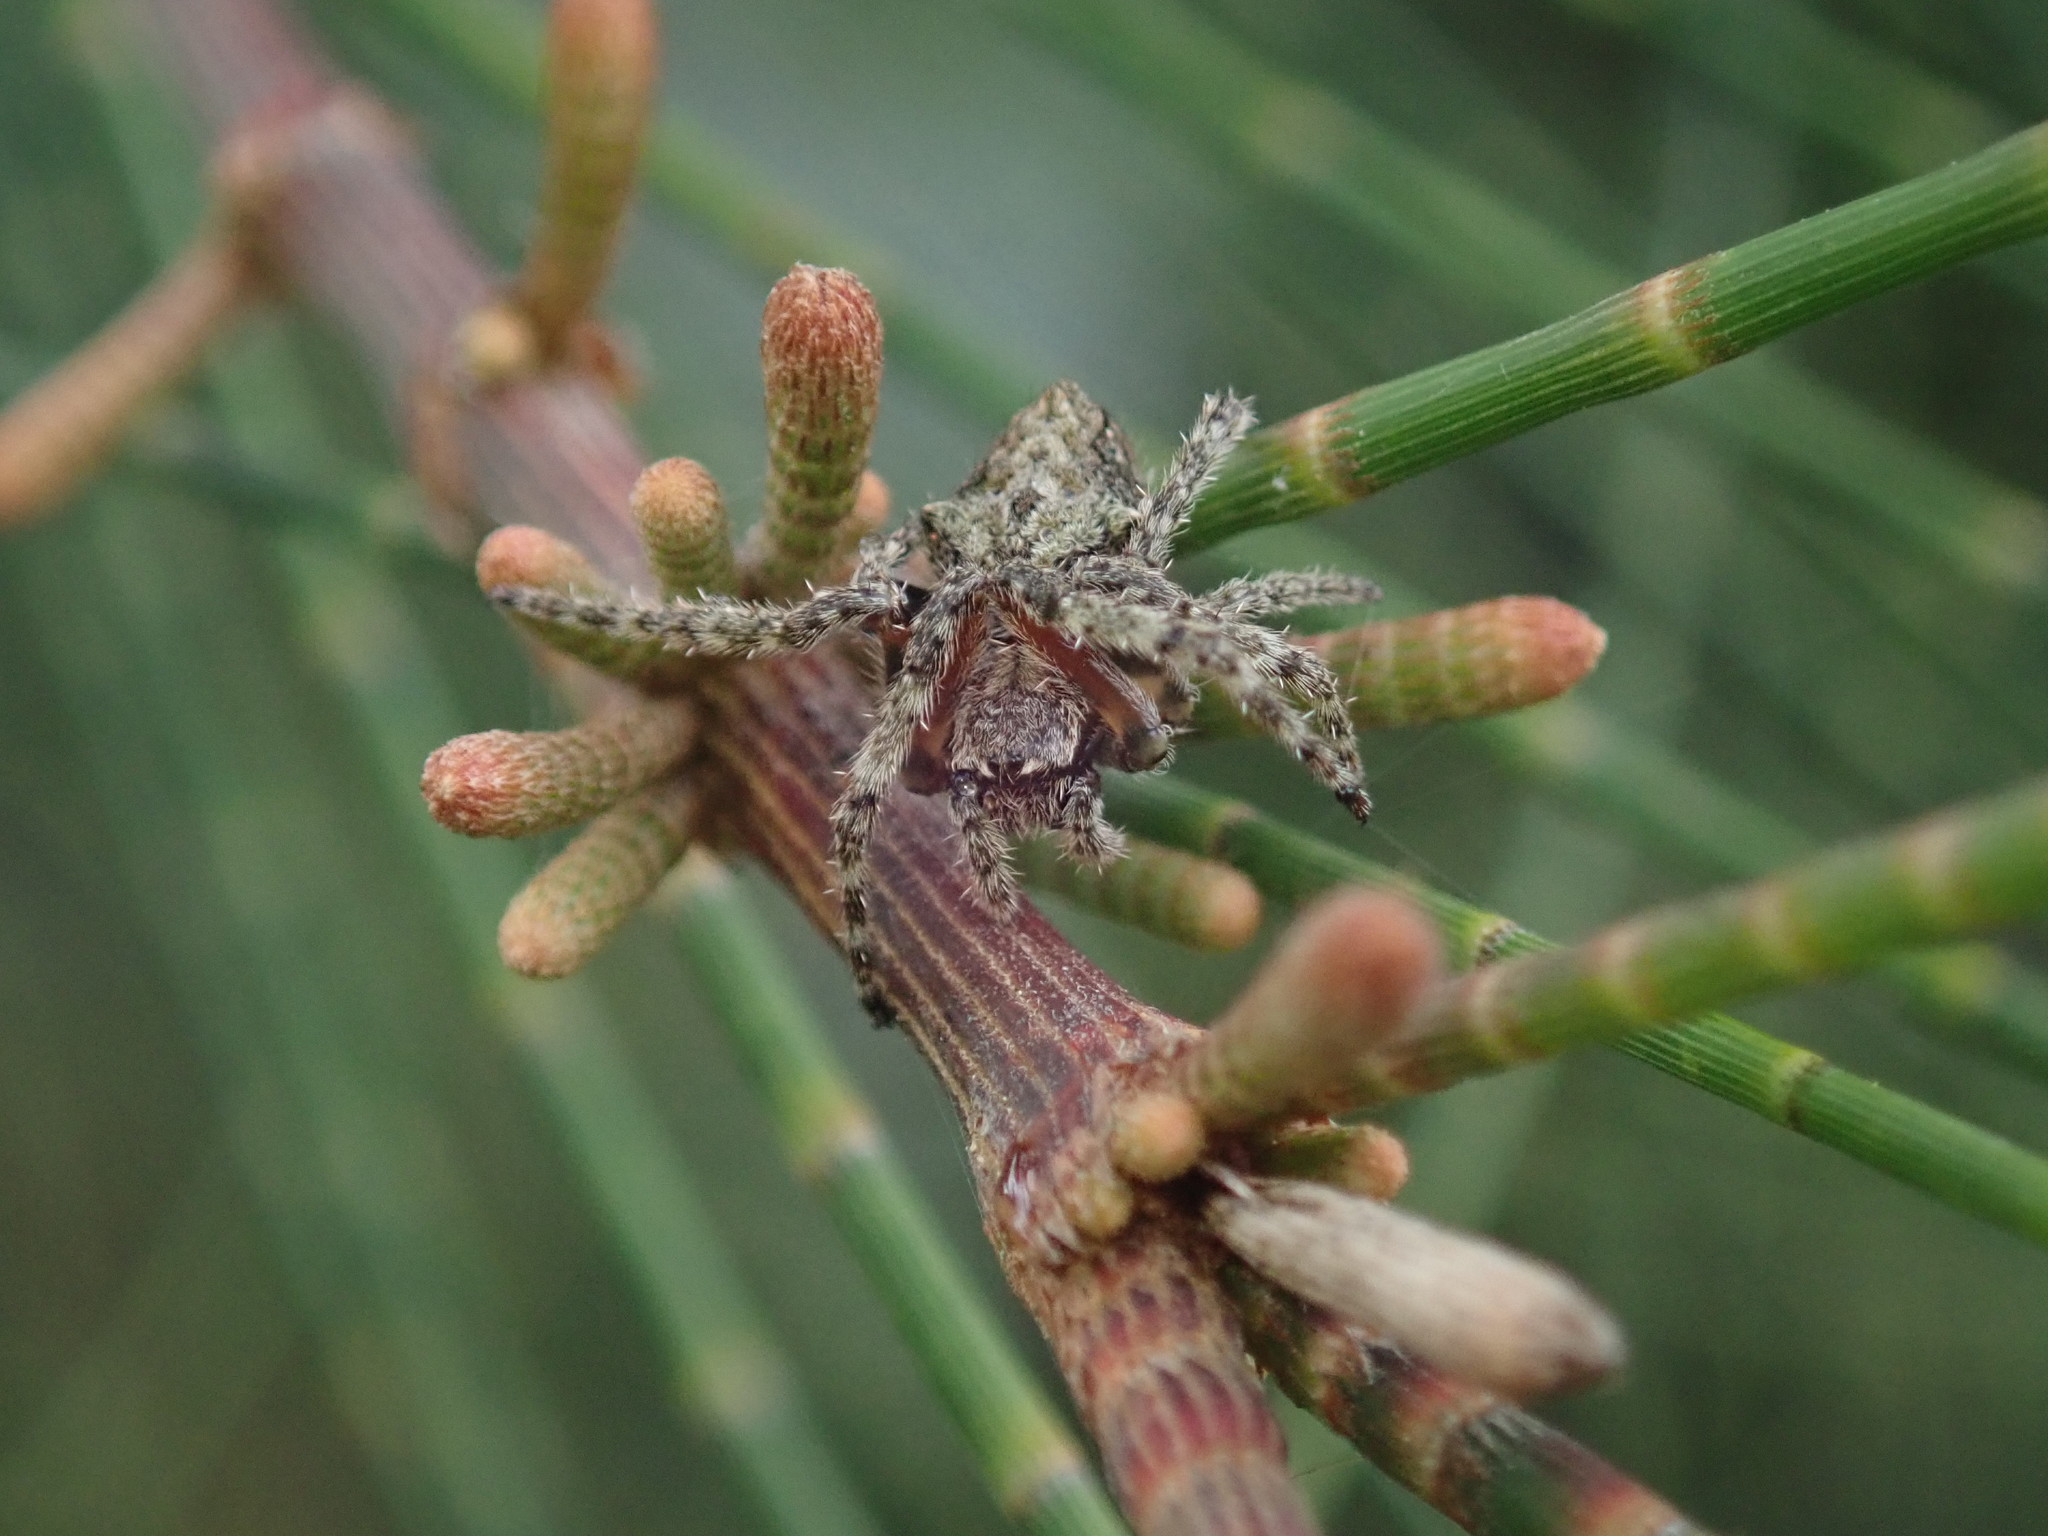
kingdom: Animalia
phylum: Arthropoda
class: Arachnida
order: Araneae
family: Araneidae
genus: Eriophora
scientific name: Eriophora pustulosa
